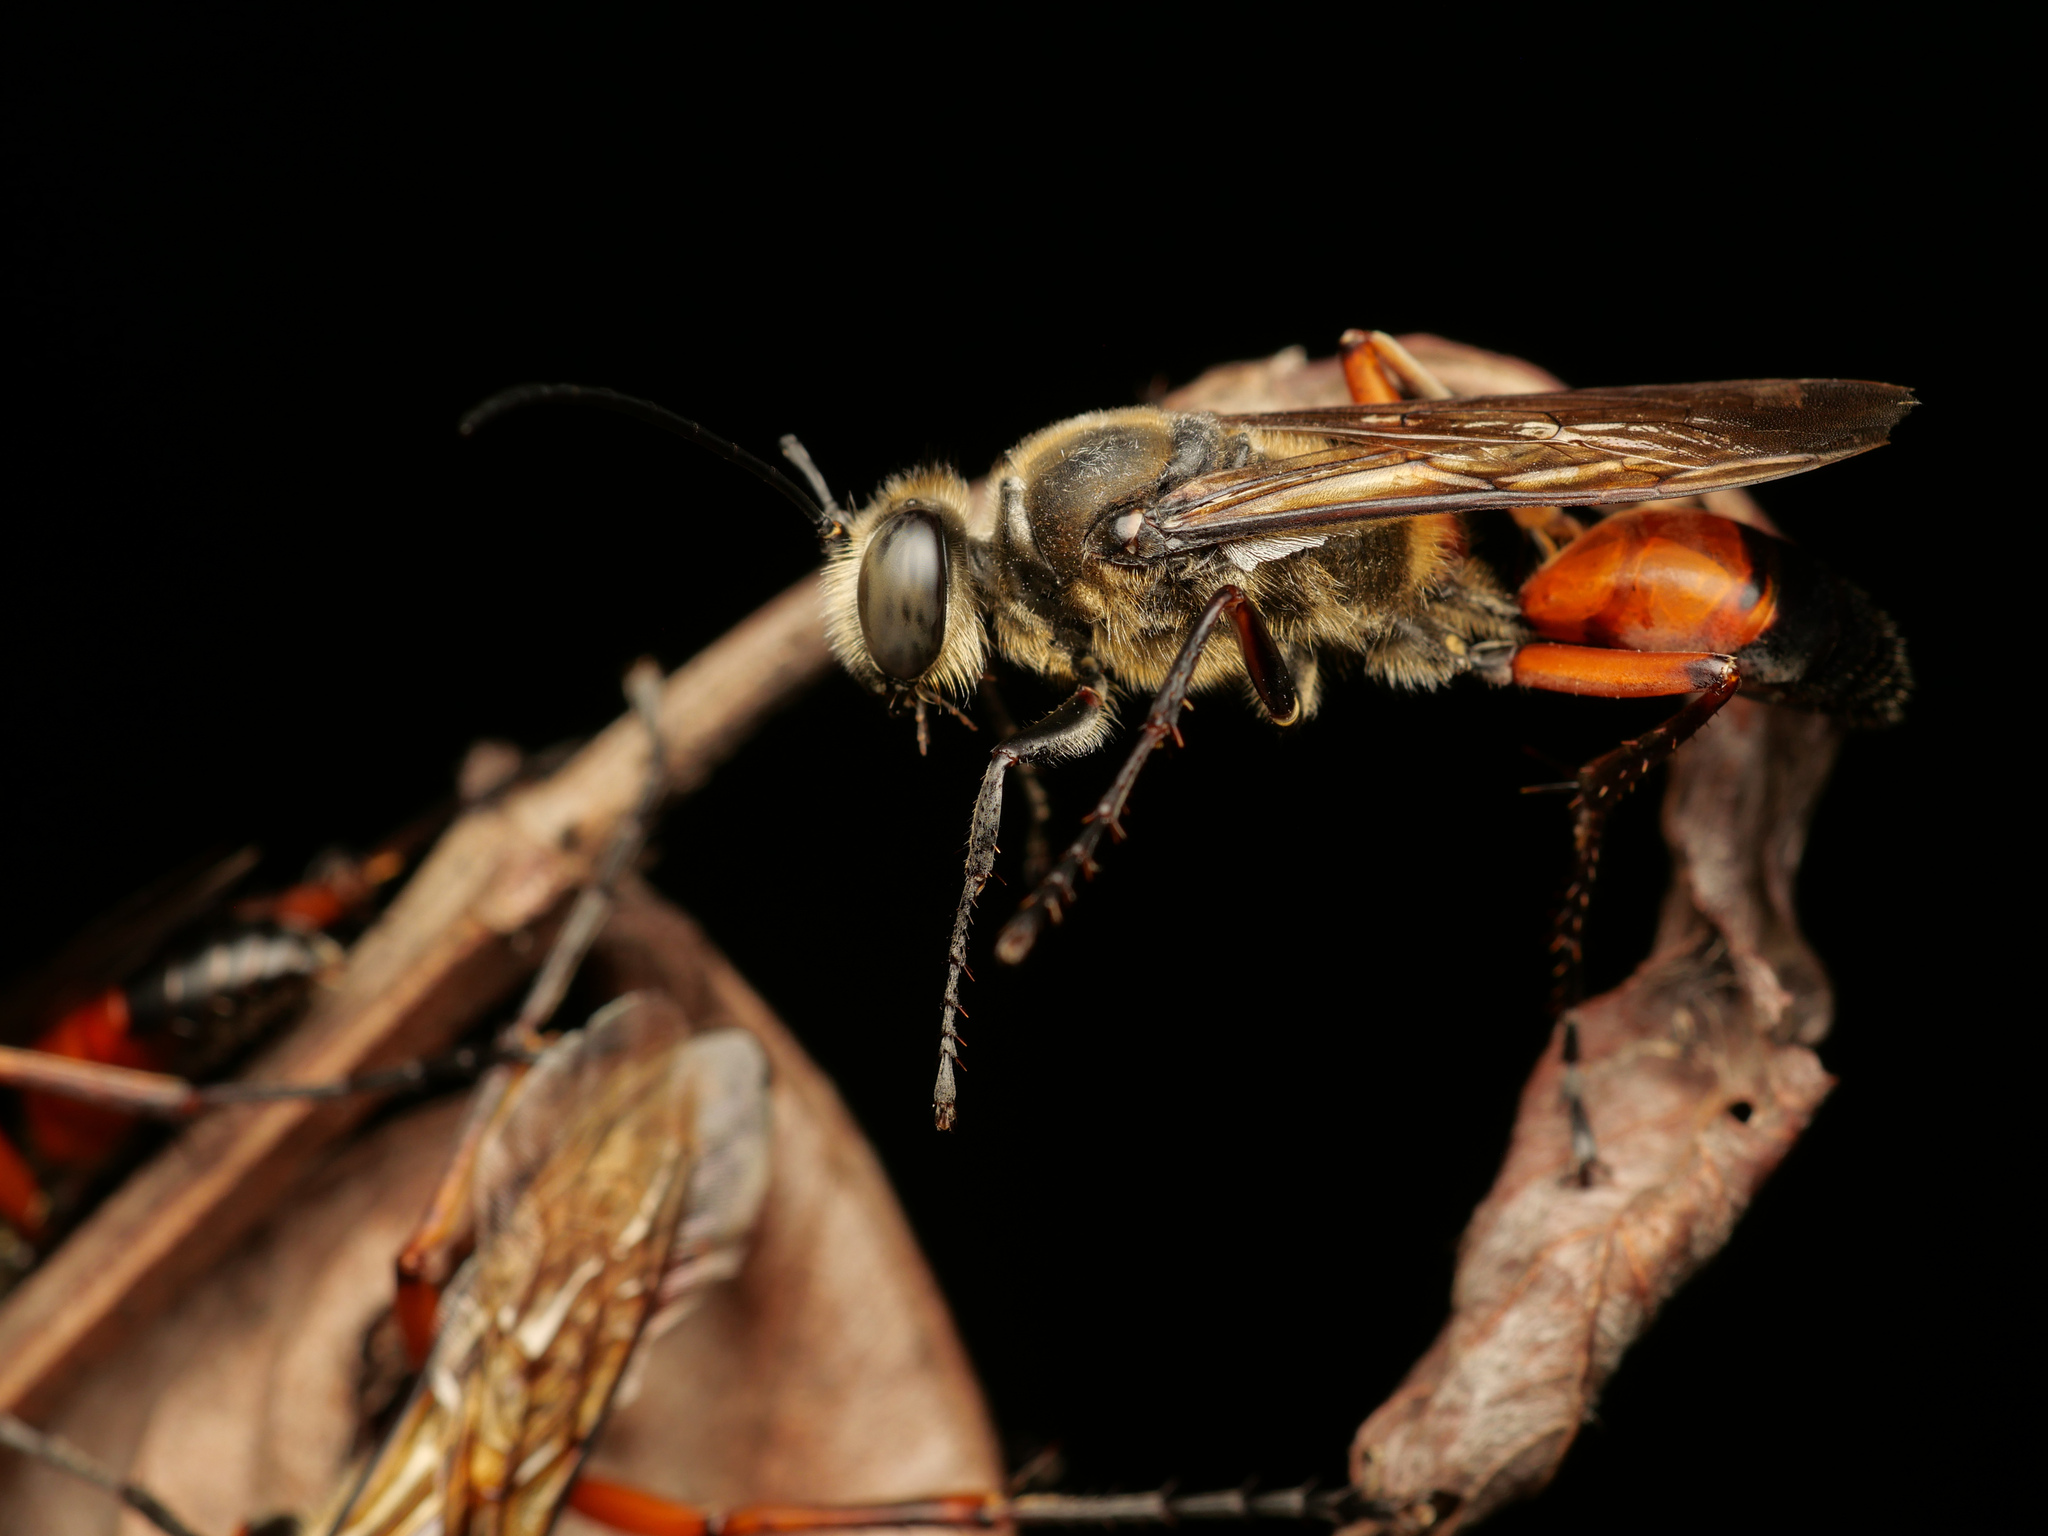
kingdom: Animalia
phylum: Arthropoda
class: Insecta
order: Hymenoptera
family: Sphecidae
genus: Sphex
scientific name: Sphex sericeus
